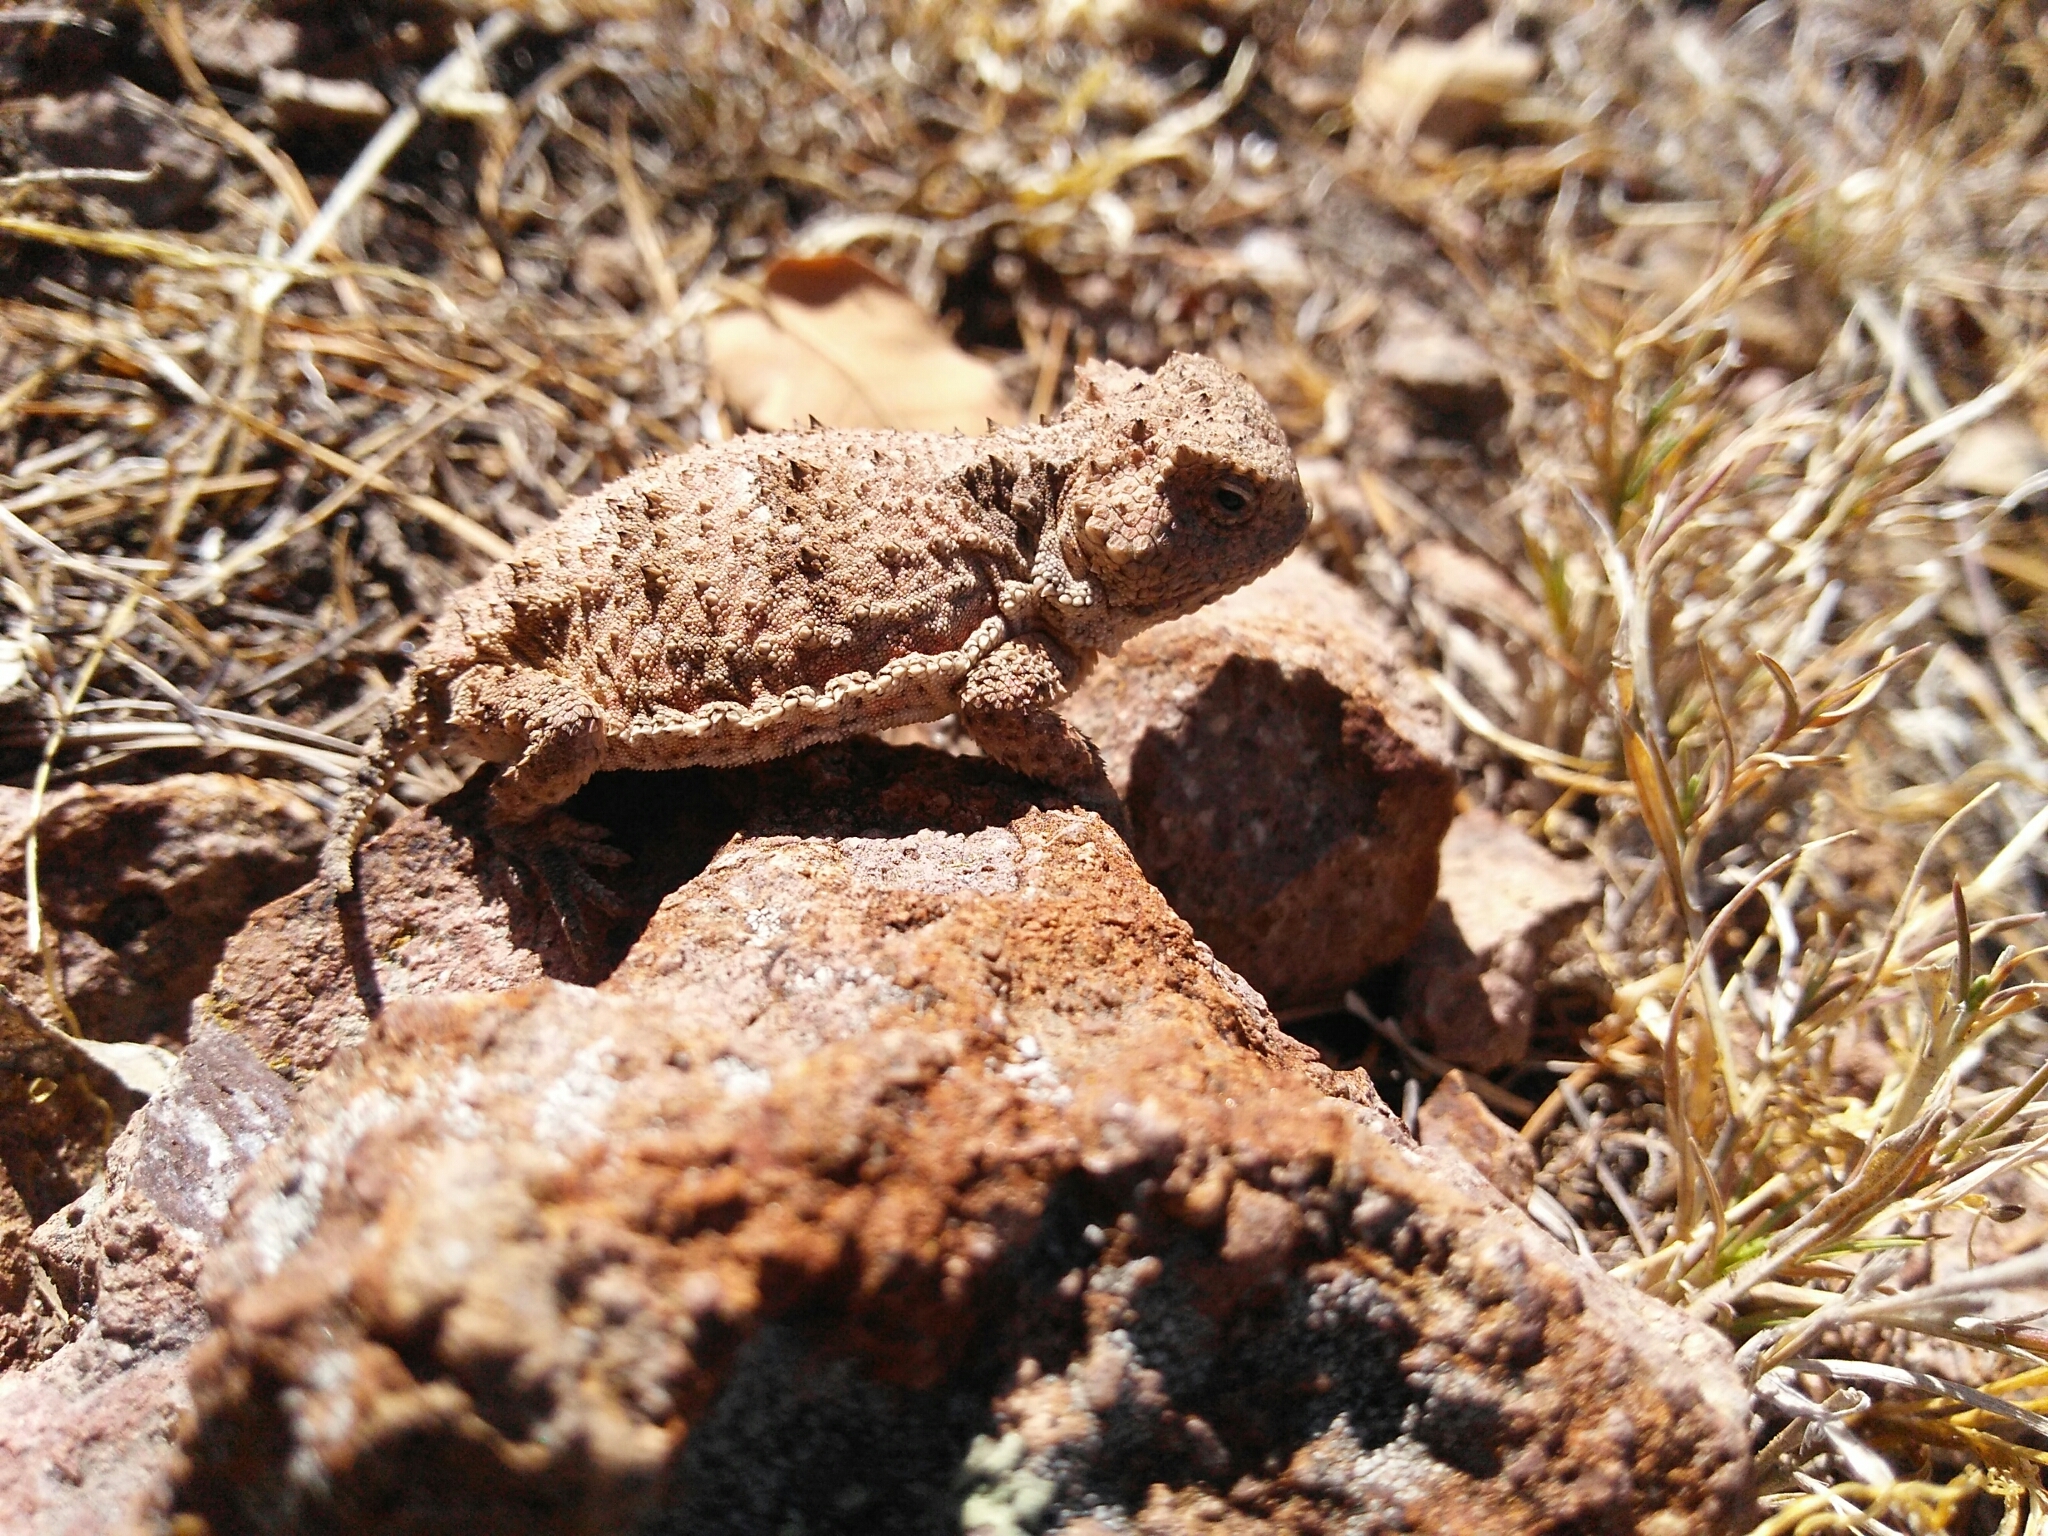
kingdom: Animalia
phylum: Chordata
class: Squamata
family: Phrynosomatidae
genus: Phrynosoma
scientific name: Phrynosoma hernandesi
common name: Greater short-horned lizard
